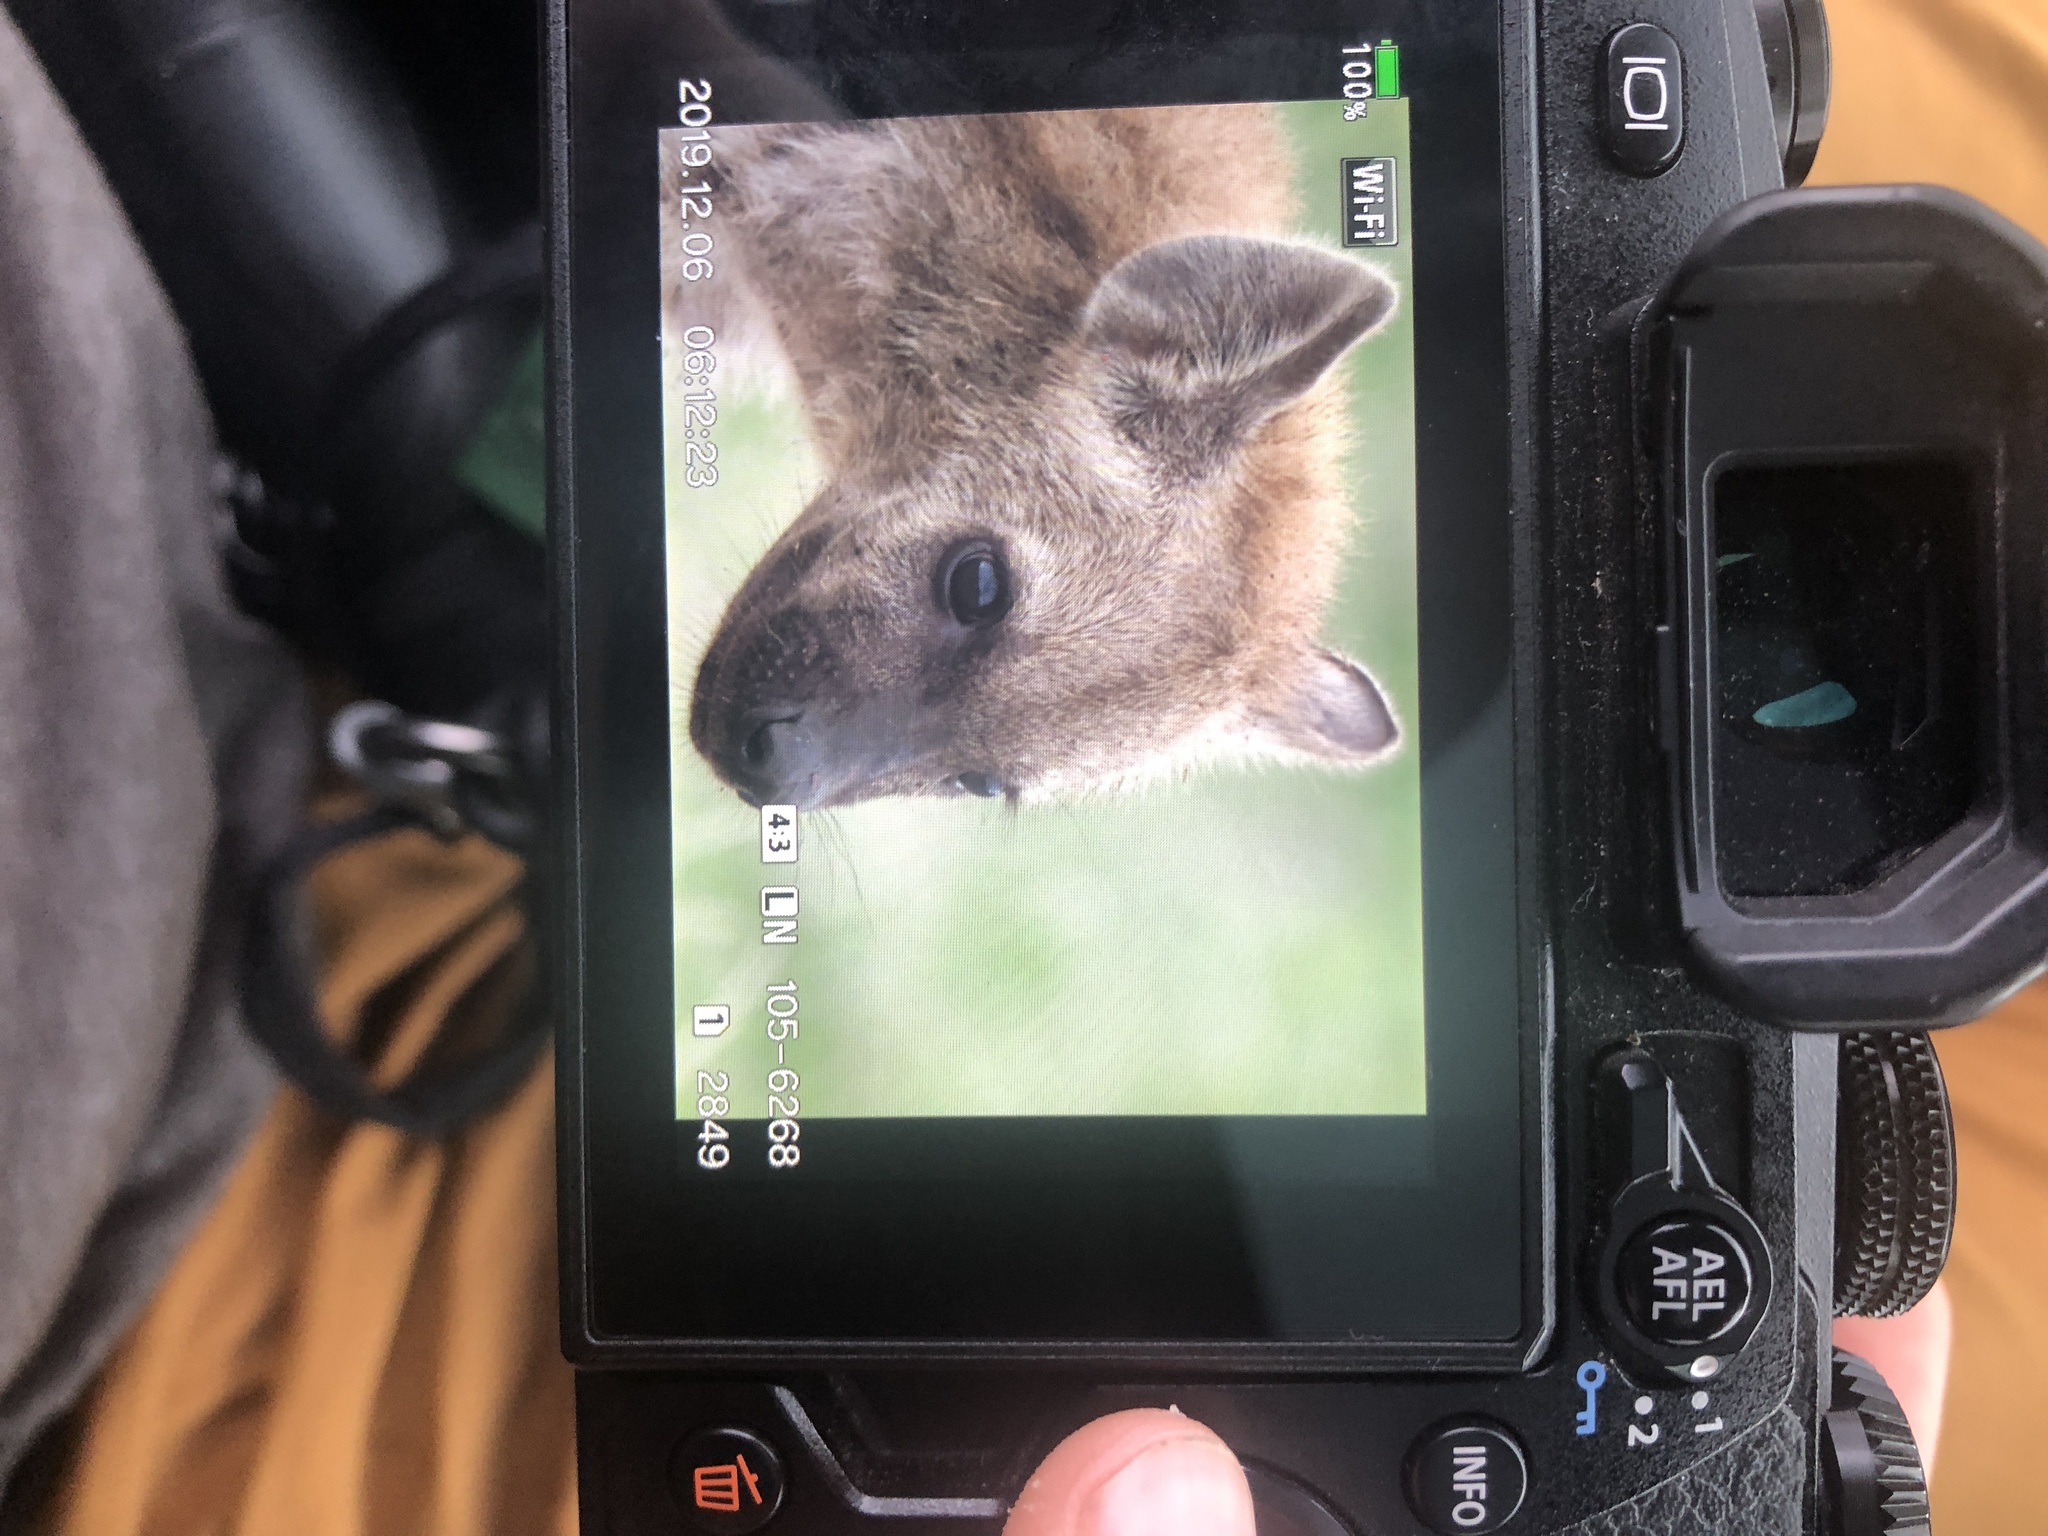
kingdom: Animalia
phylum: Chordata
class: Mammalia
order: Carnivora
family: Hyaenidae
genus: Crocuta
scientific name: Crocuta crocuta
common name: Spotted hyaena
